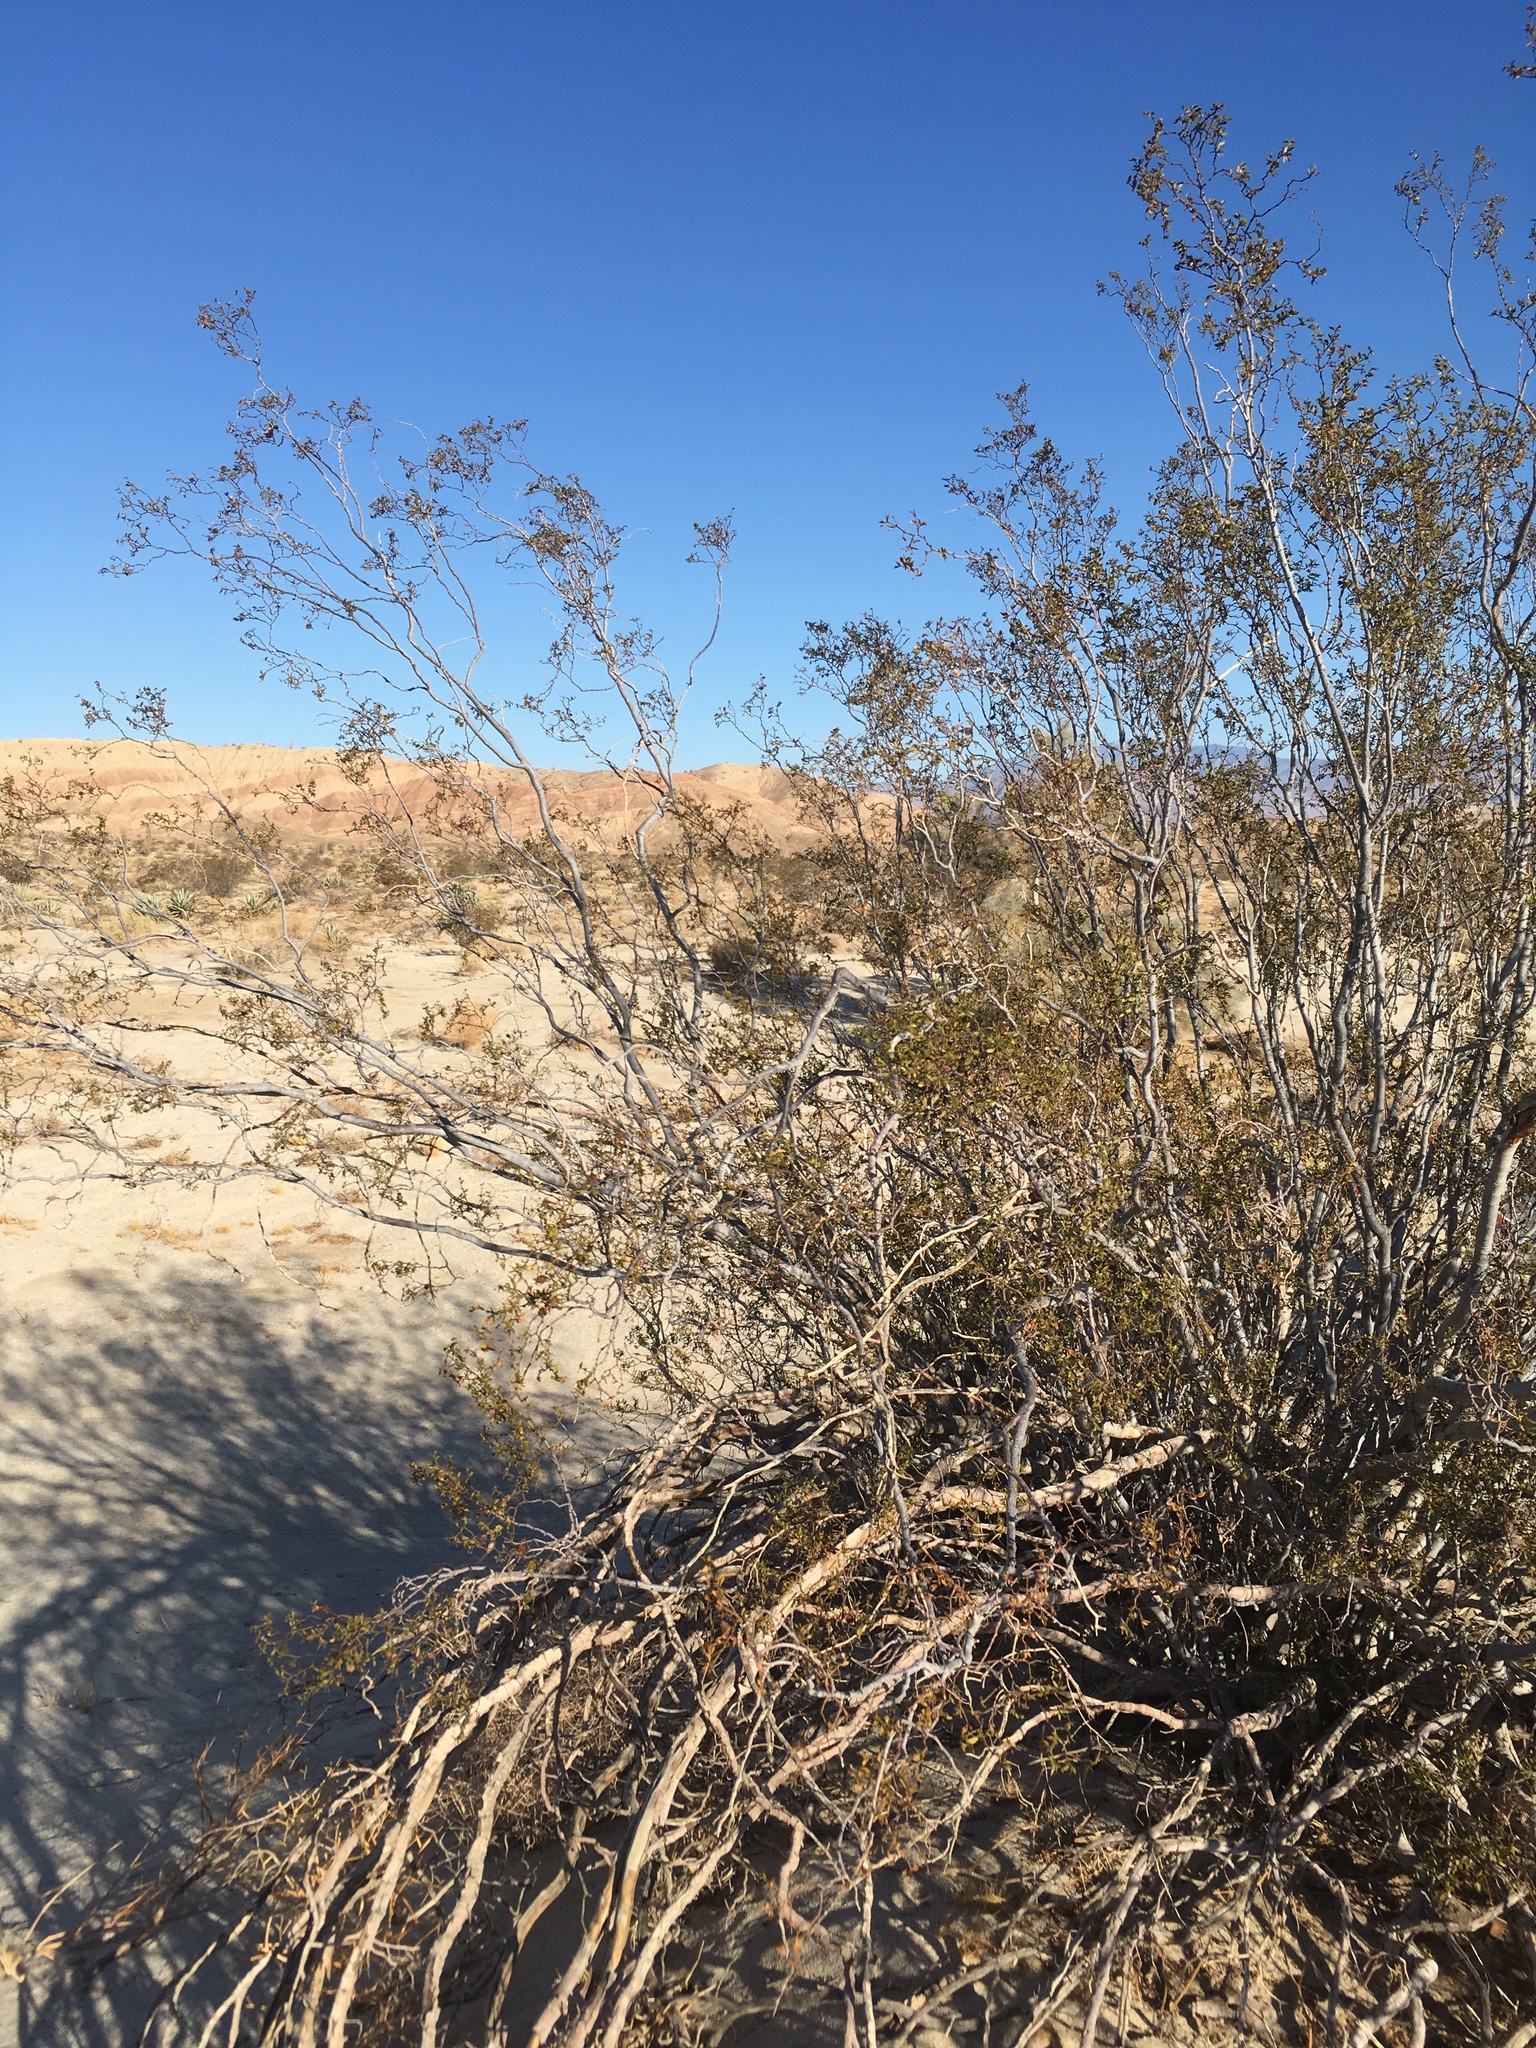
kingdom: Plantae
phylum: Tracheophyta
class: Magnoliopsida
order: Zygophyllales
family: Zygophyllaceae
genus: Larrea
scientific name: Larrea tridentata
